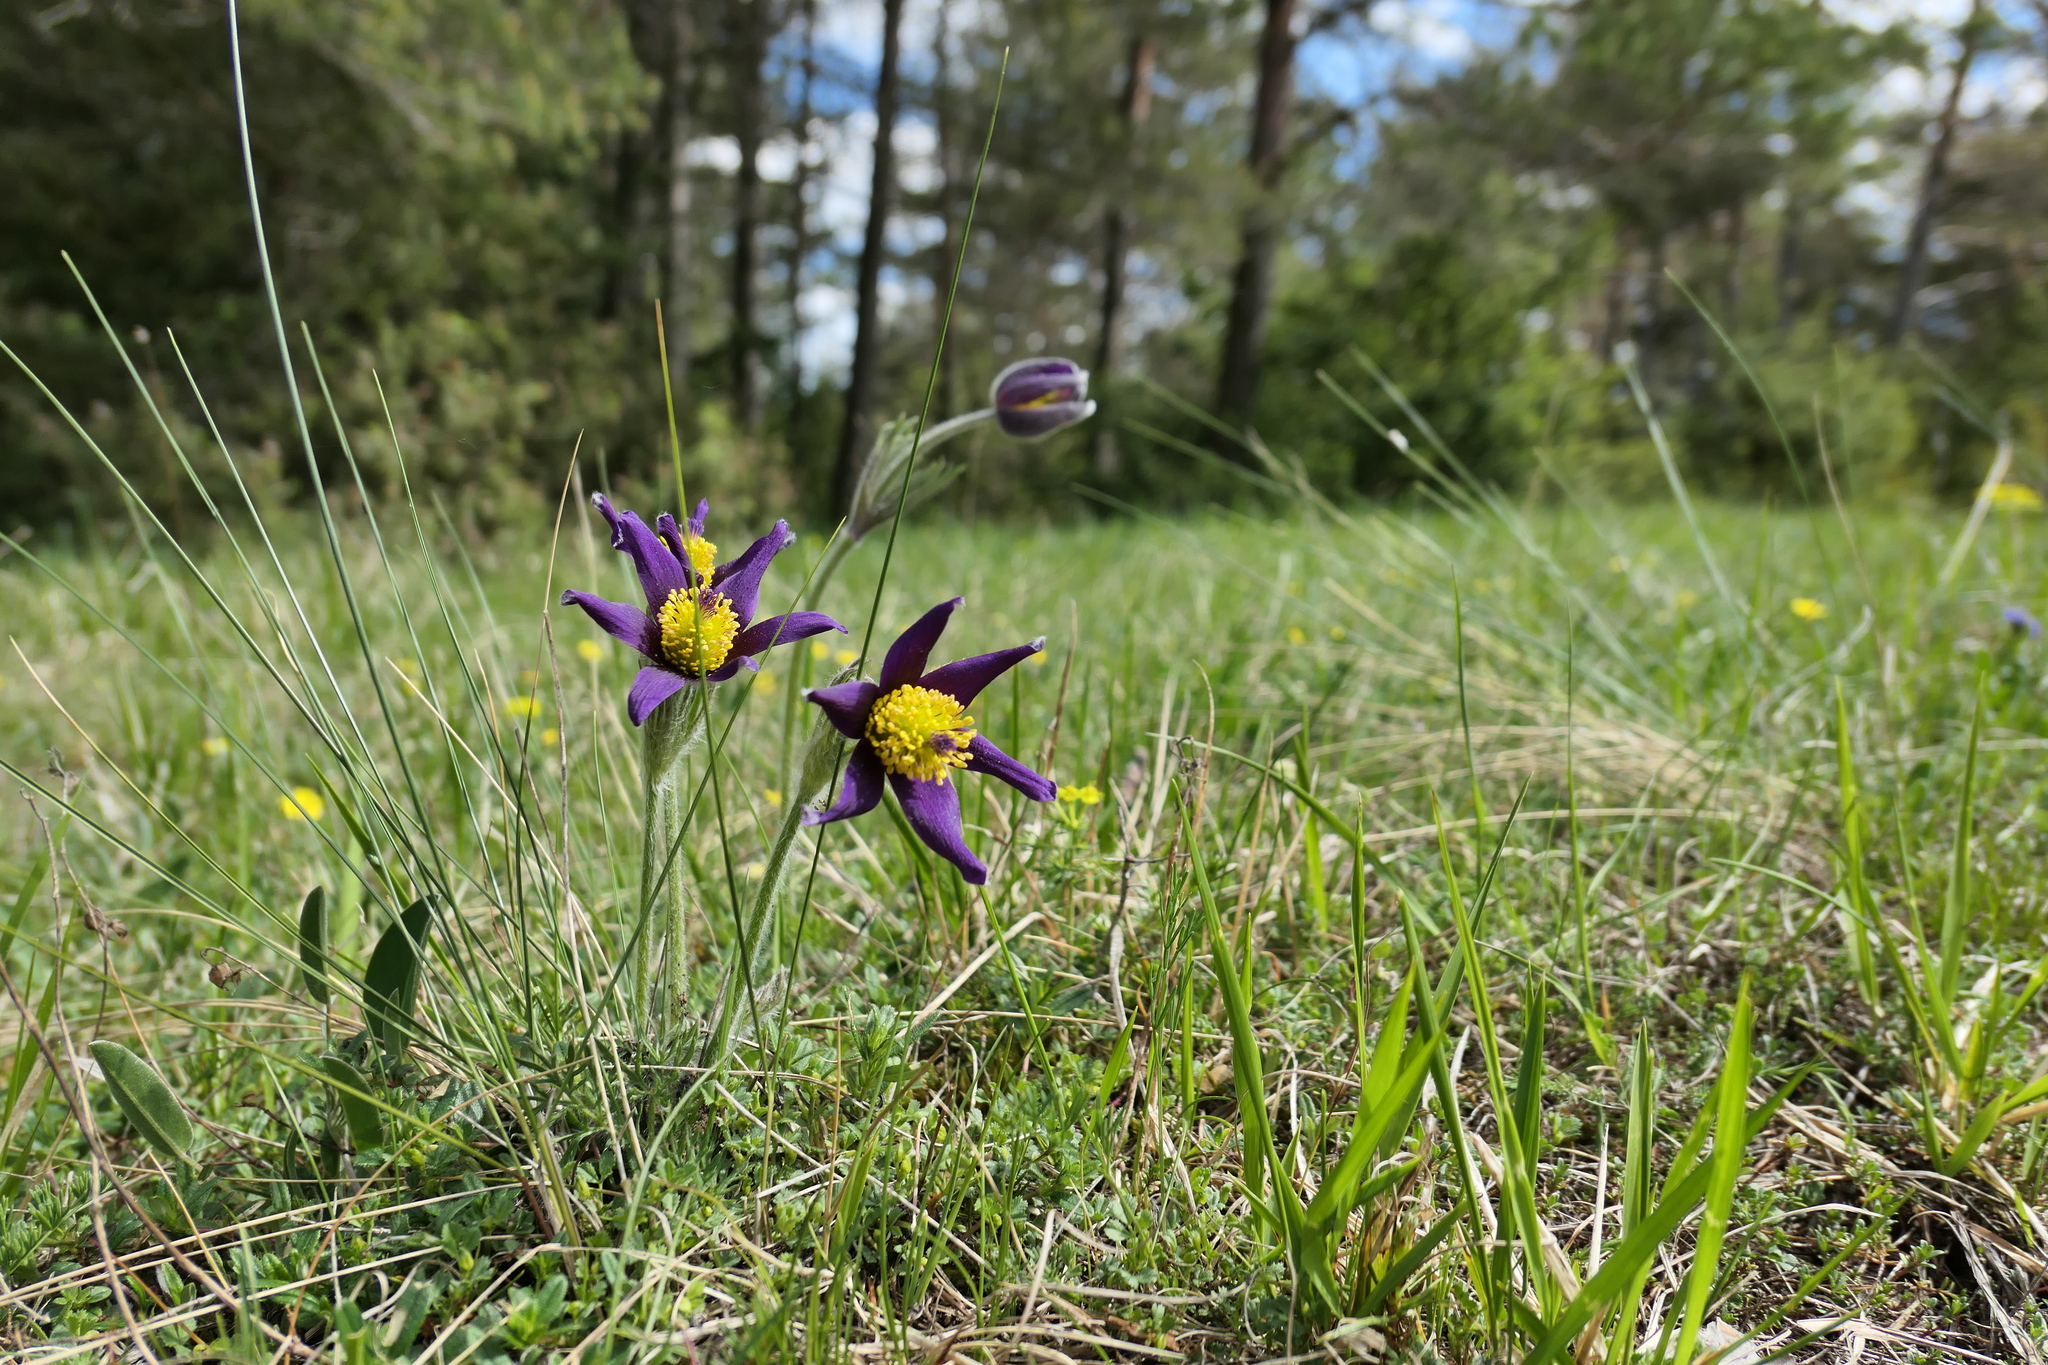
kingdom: Plantae
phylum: Tracheophyta
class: Magnoliopsida
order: Ranunculales
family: Ranunculaceae
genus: Pulsatilla
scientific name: Pulsatilla vulgaris
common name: Pasqueflower
